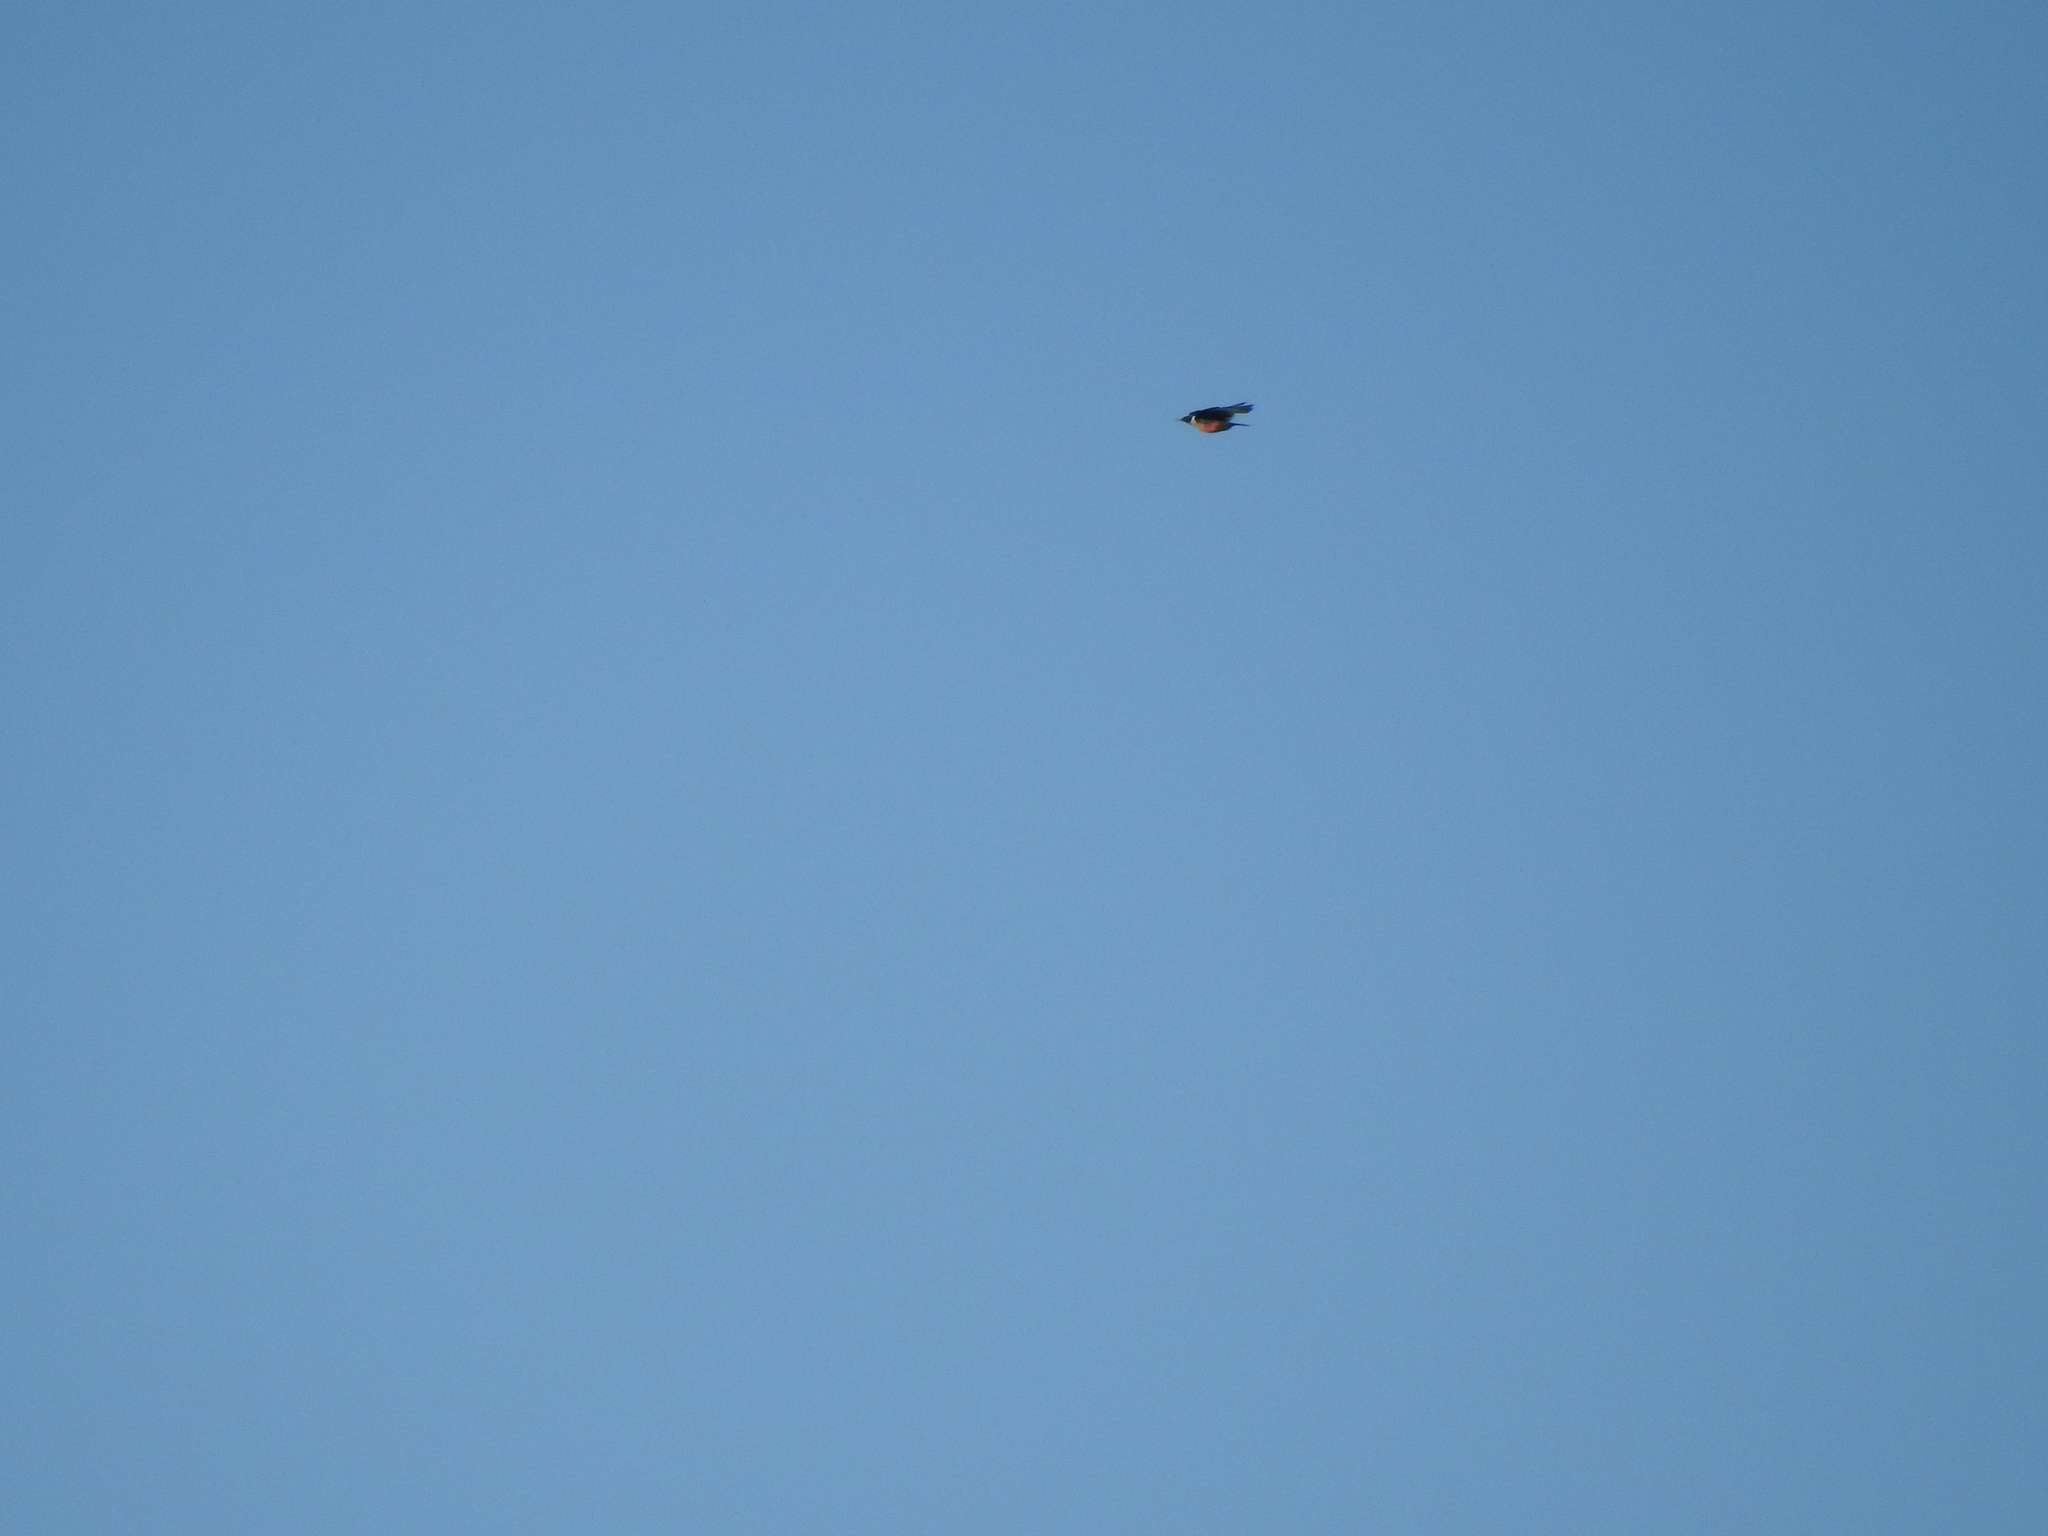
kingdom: Animalia
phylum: Chordata
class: Aves
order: Piciformes
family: Picidae
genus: Melanerpes
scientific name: Melanerpes lewis
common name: Lewis's woodpecker
